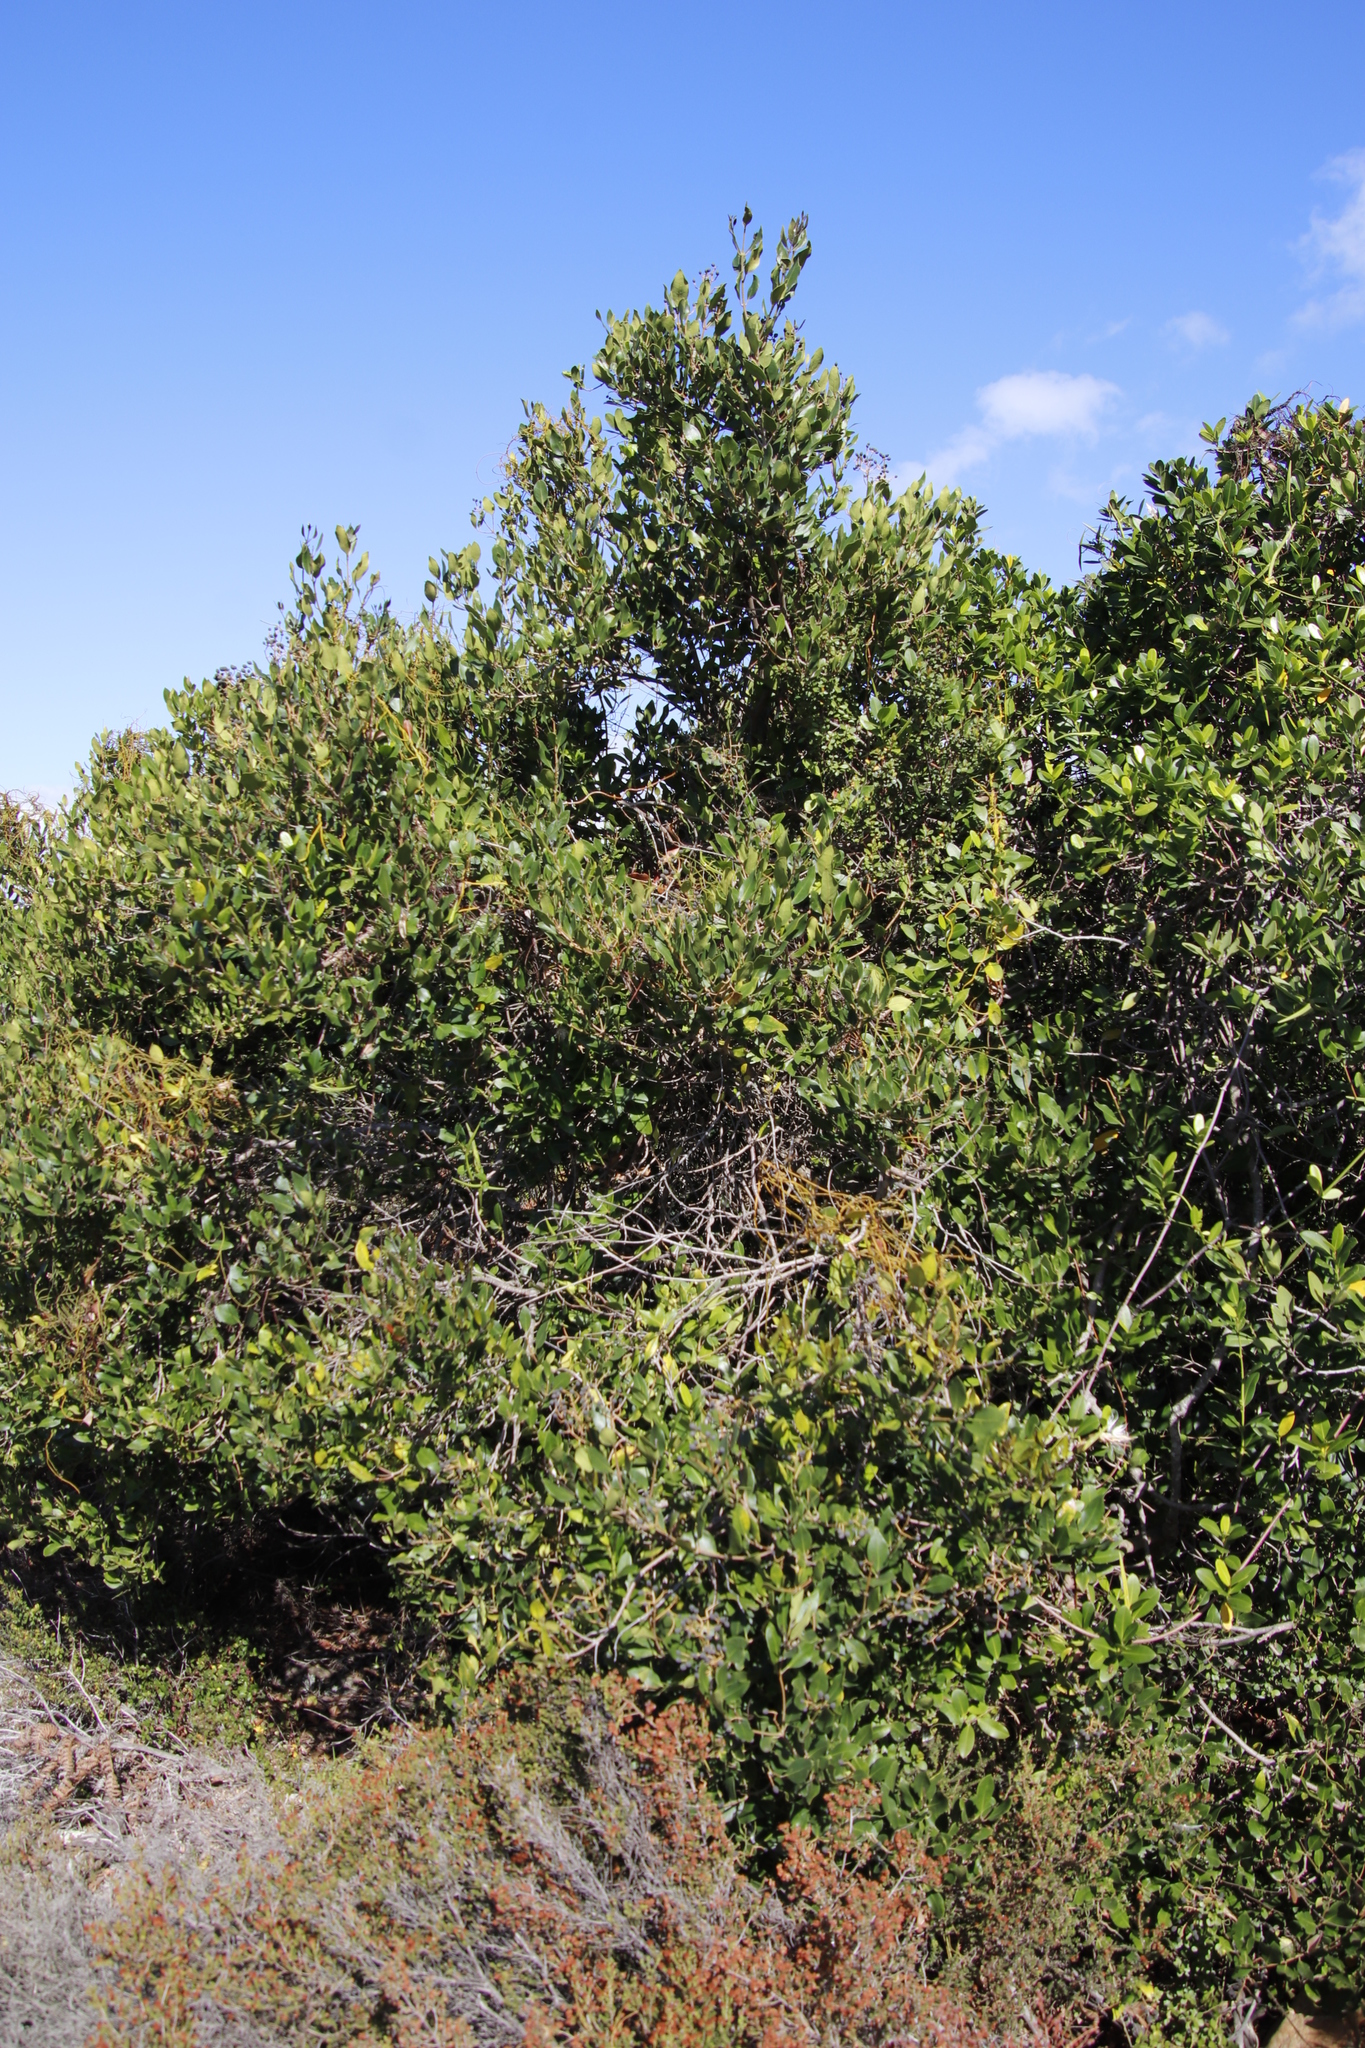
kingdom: Plantae
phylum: Tracheophyta
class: Magnoliopsida
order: Lamiales
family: Oleaceae
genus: Olea
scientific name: Olea capensis
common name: Black ironwood
